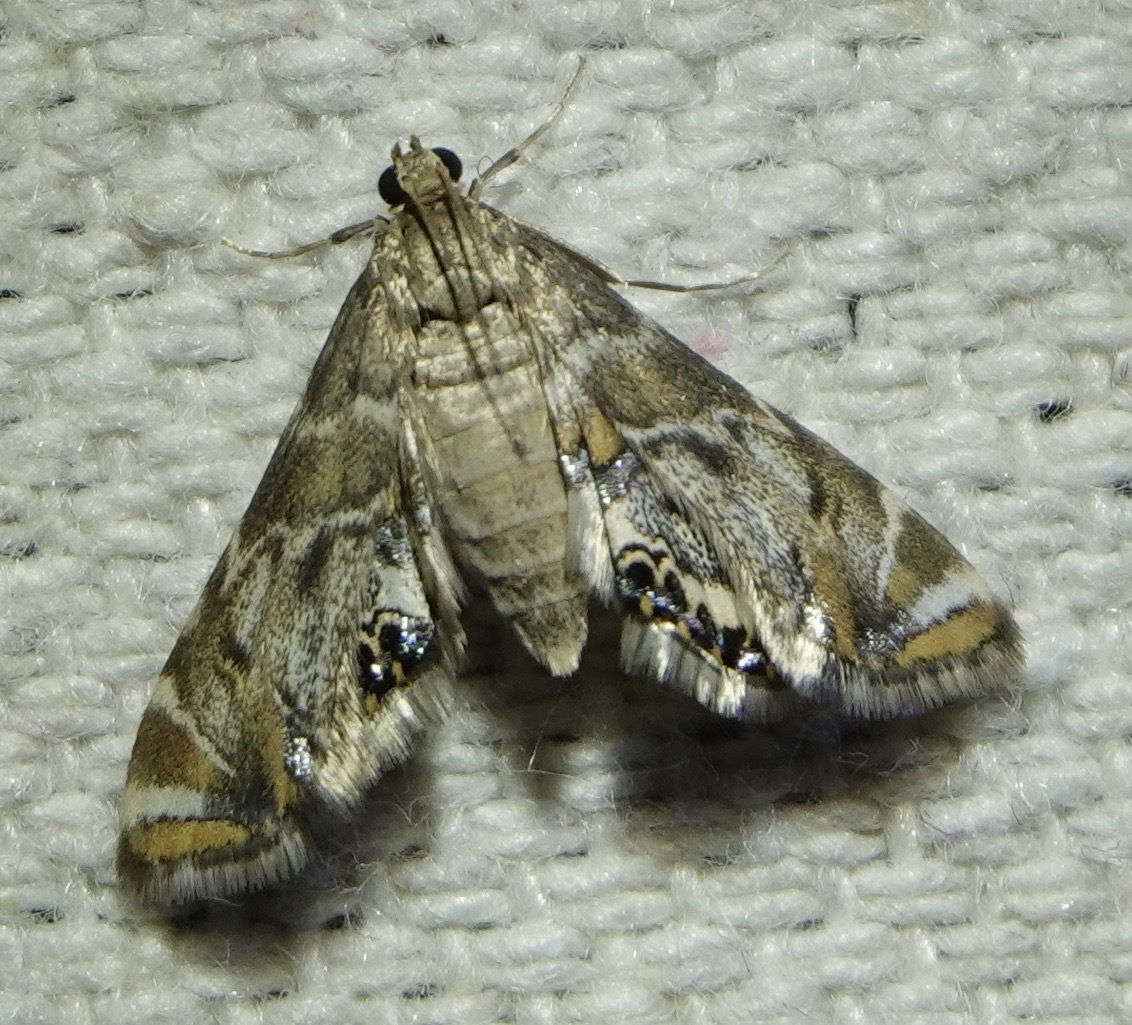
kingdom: Animalia
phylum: Arthropoda
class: Insecta
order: Lepidoptera
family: Crambidae
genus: Petrophila
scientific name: Petrophila confusalis
